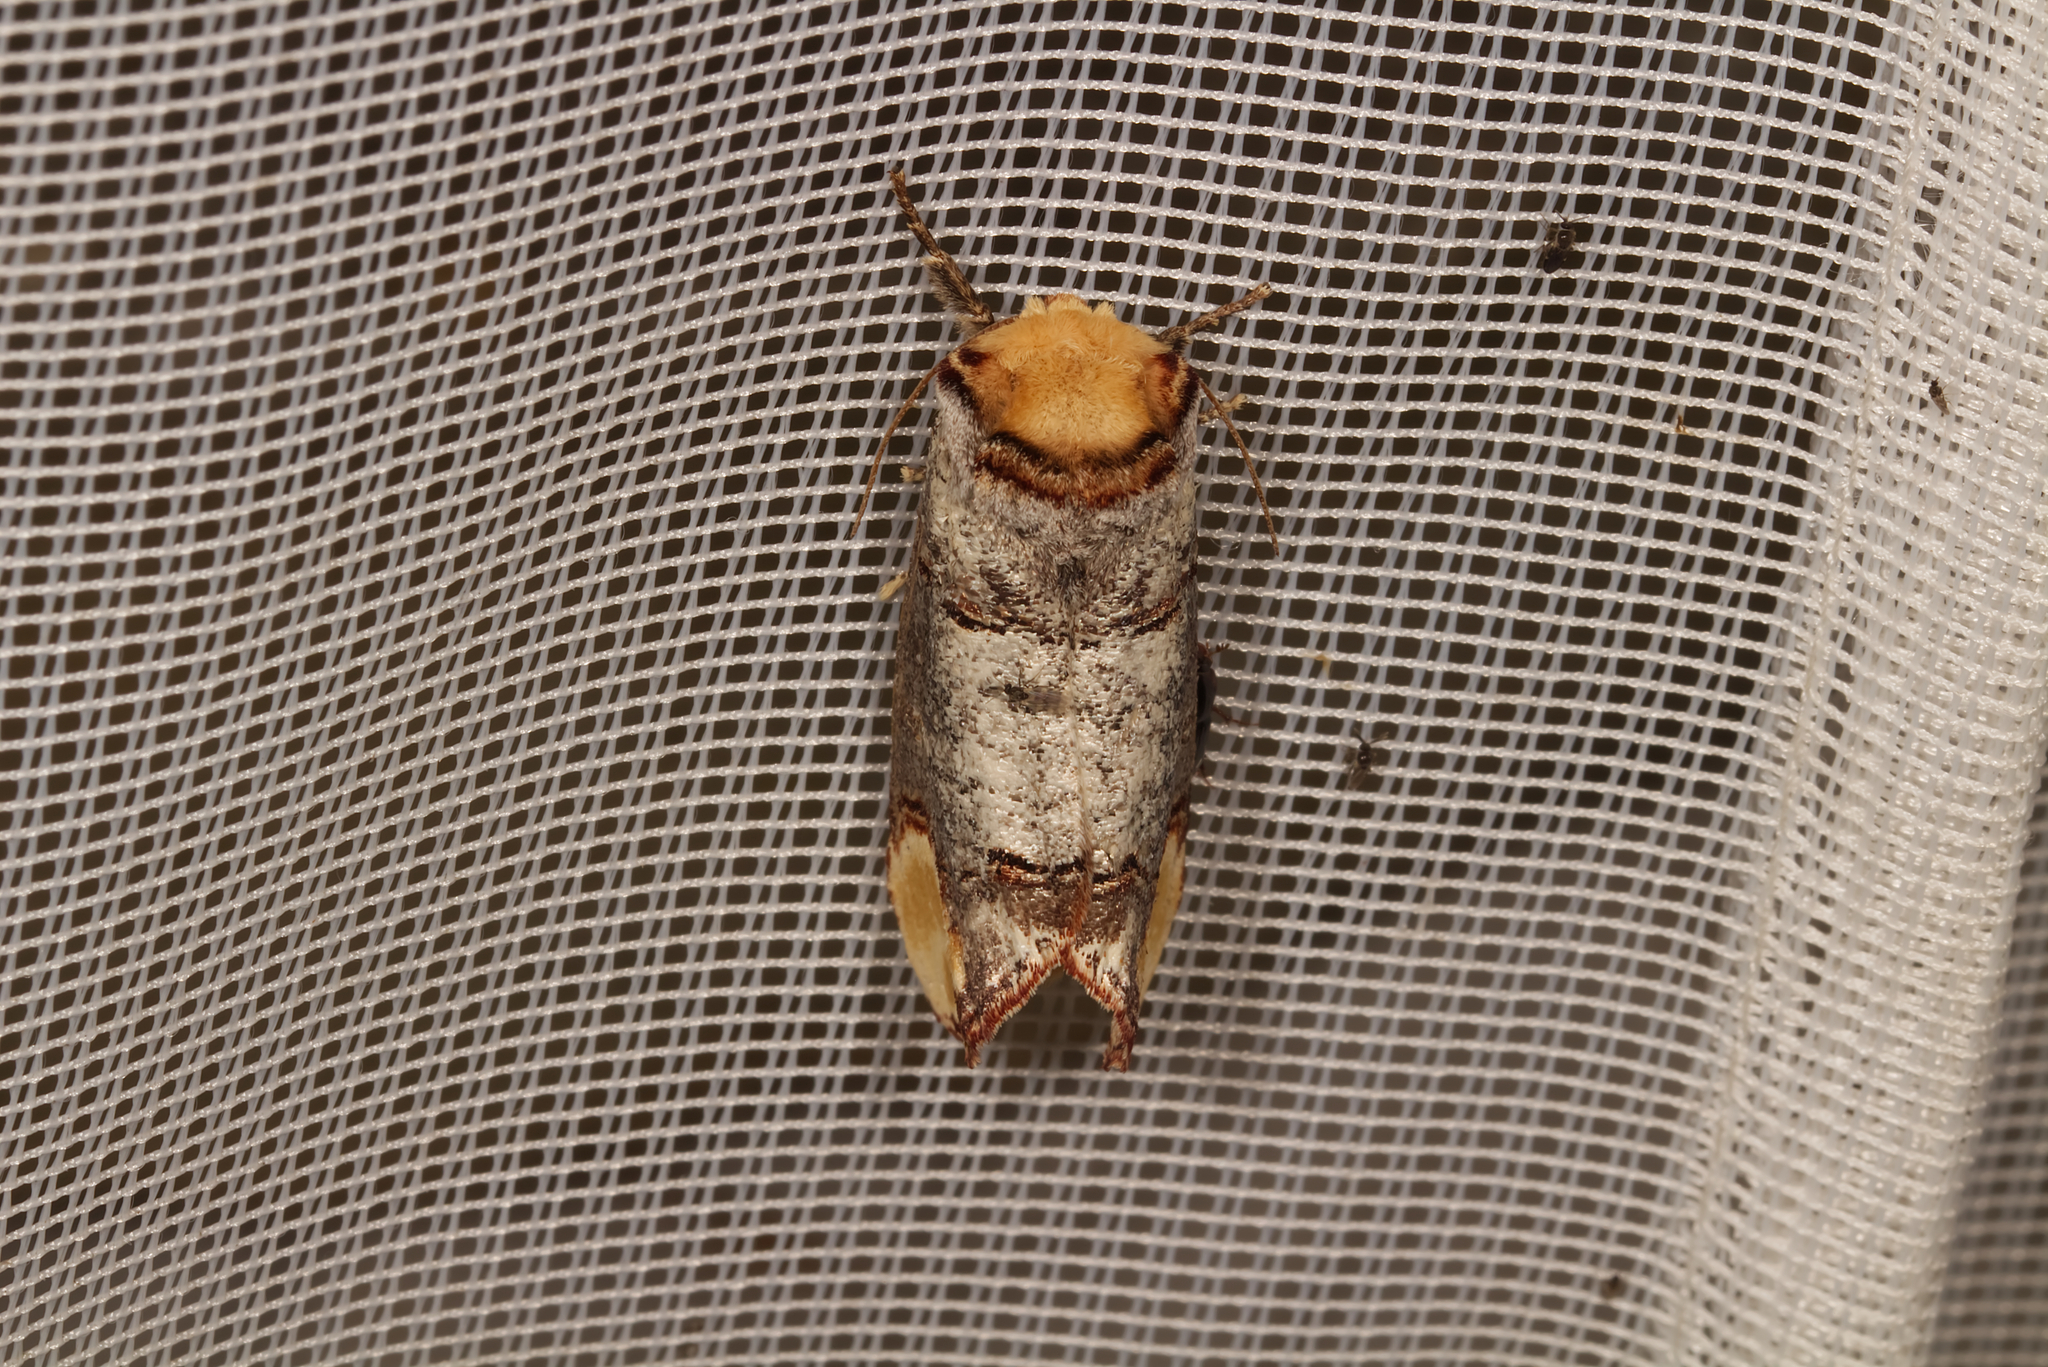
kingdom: Animalia
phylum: Arthropoda
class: Insecta
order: Lepidoptera
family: Notodontidae
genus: Phalera
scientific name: Phalera bucephala
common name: Buff-tip
